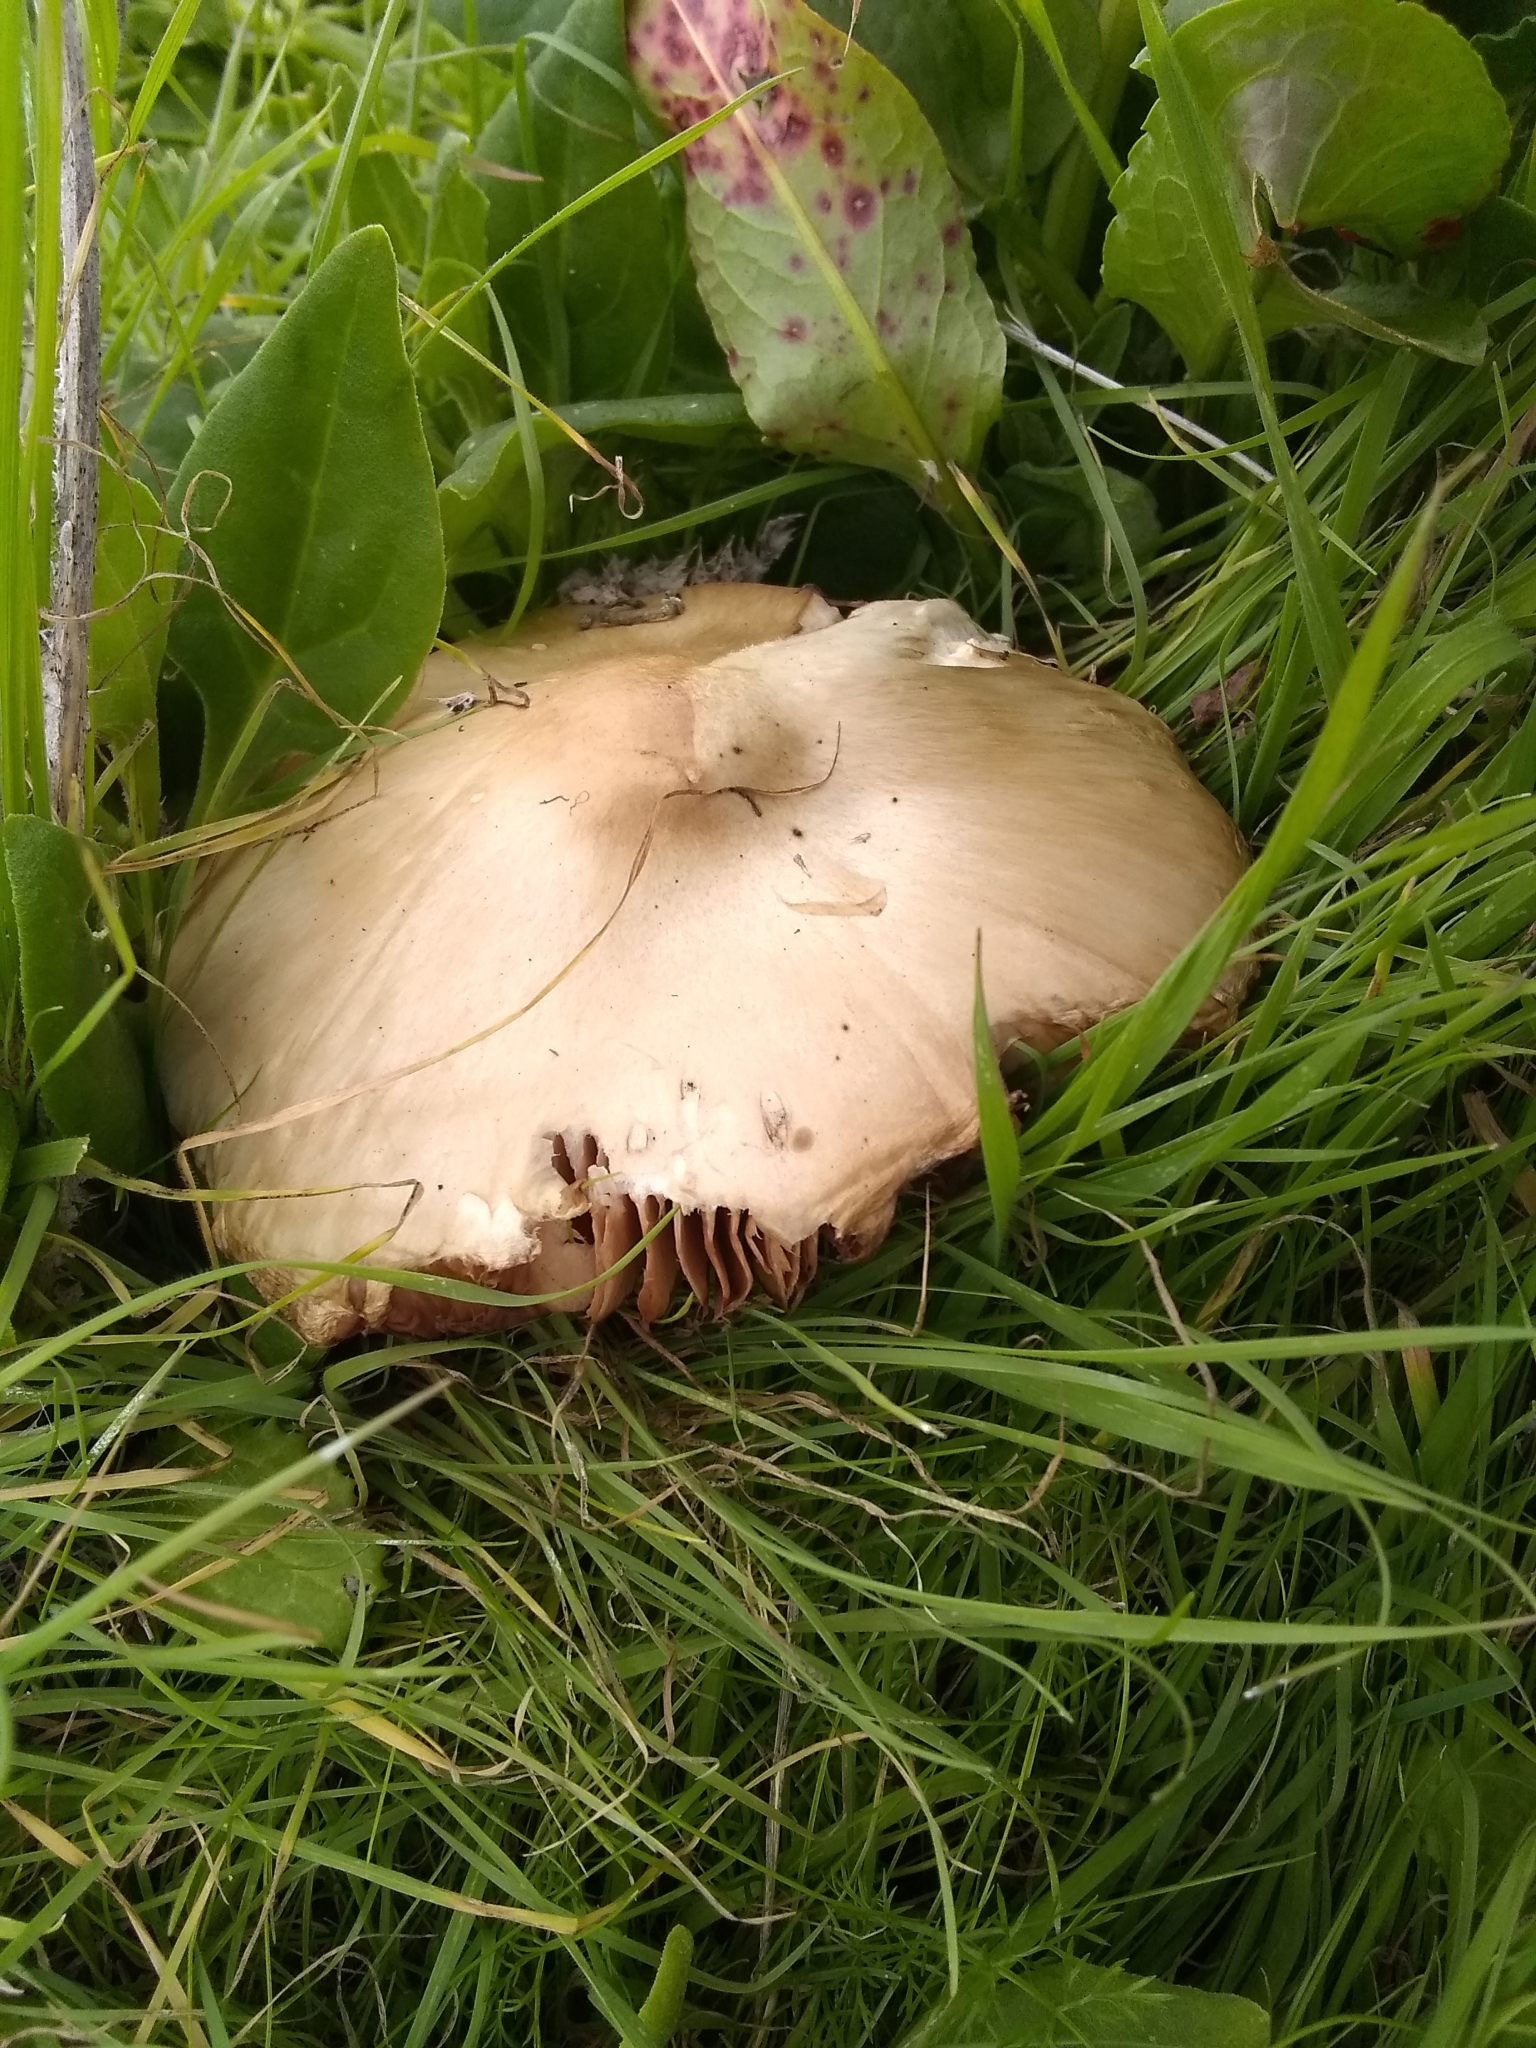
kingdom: Fungi
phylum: Basidiomycota
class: Agaricomycetes
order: Agaricales
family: Pluteaceae
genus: Volvopluteus
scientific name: Volvopluteus gloiocephalus
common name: Stubble rosegill
